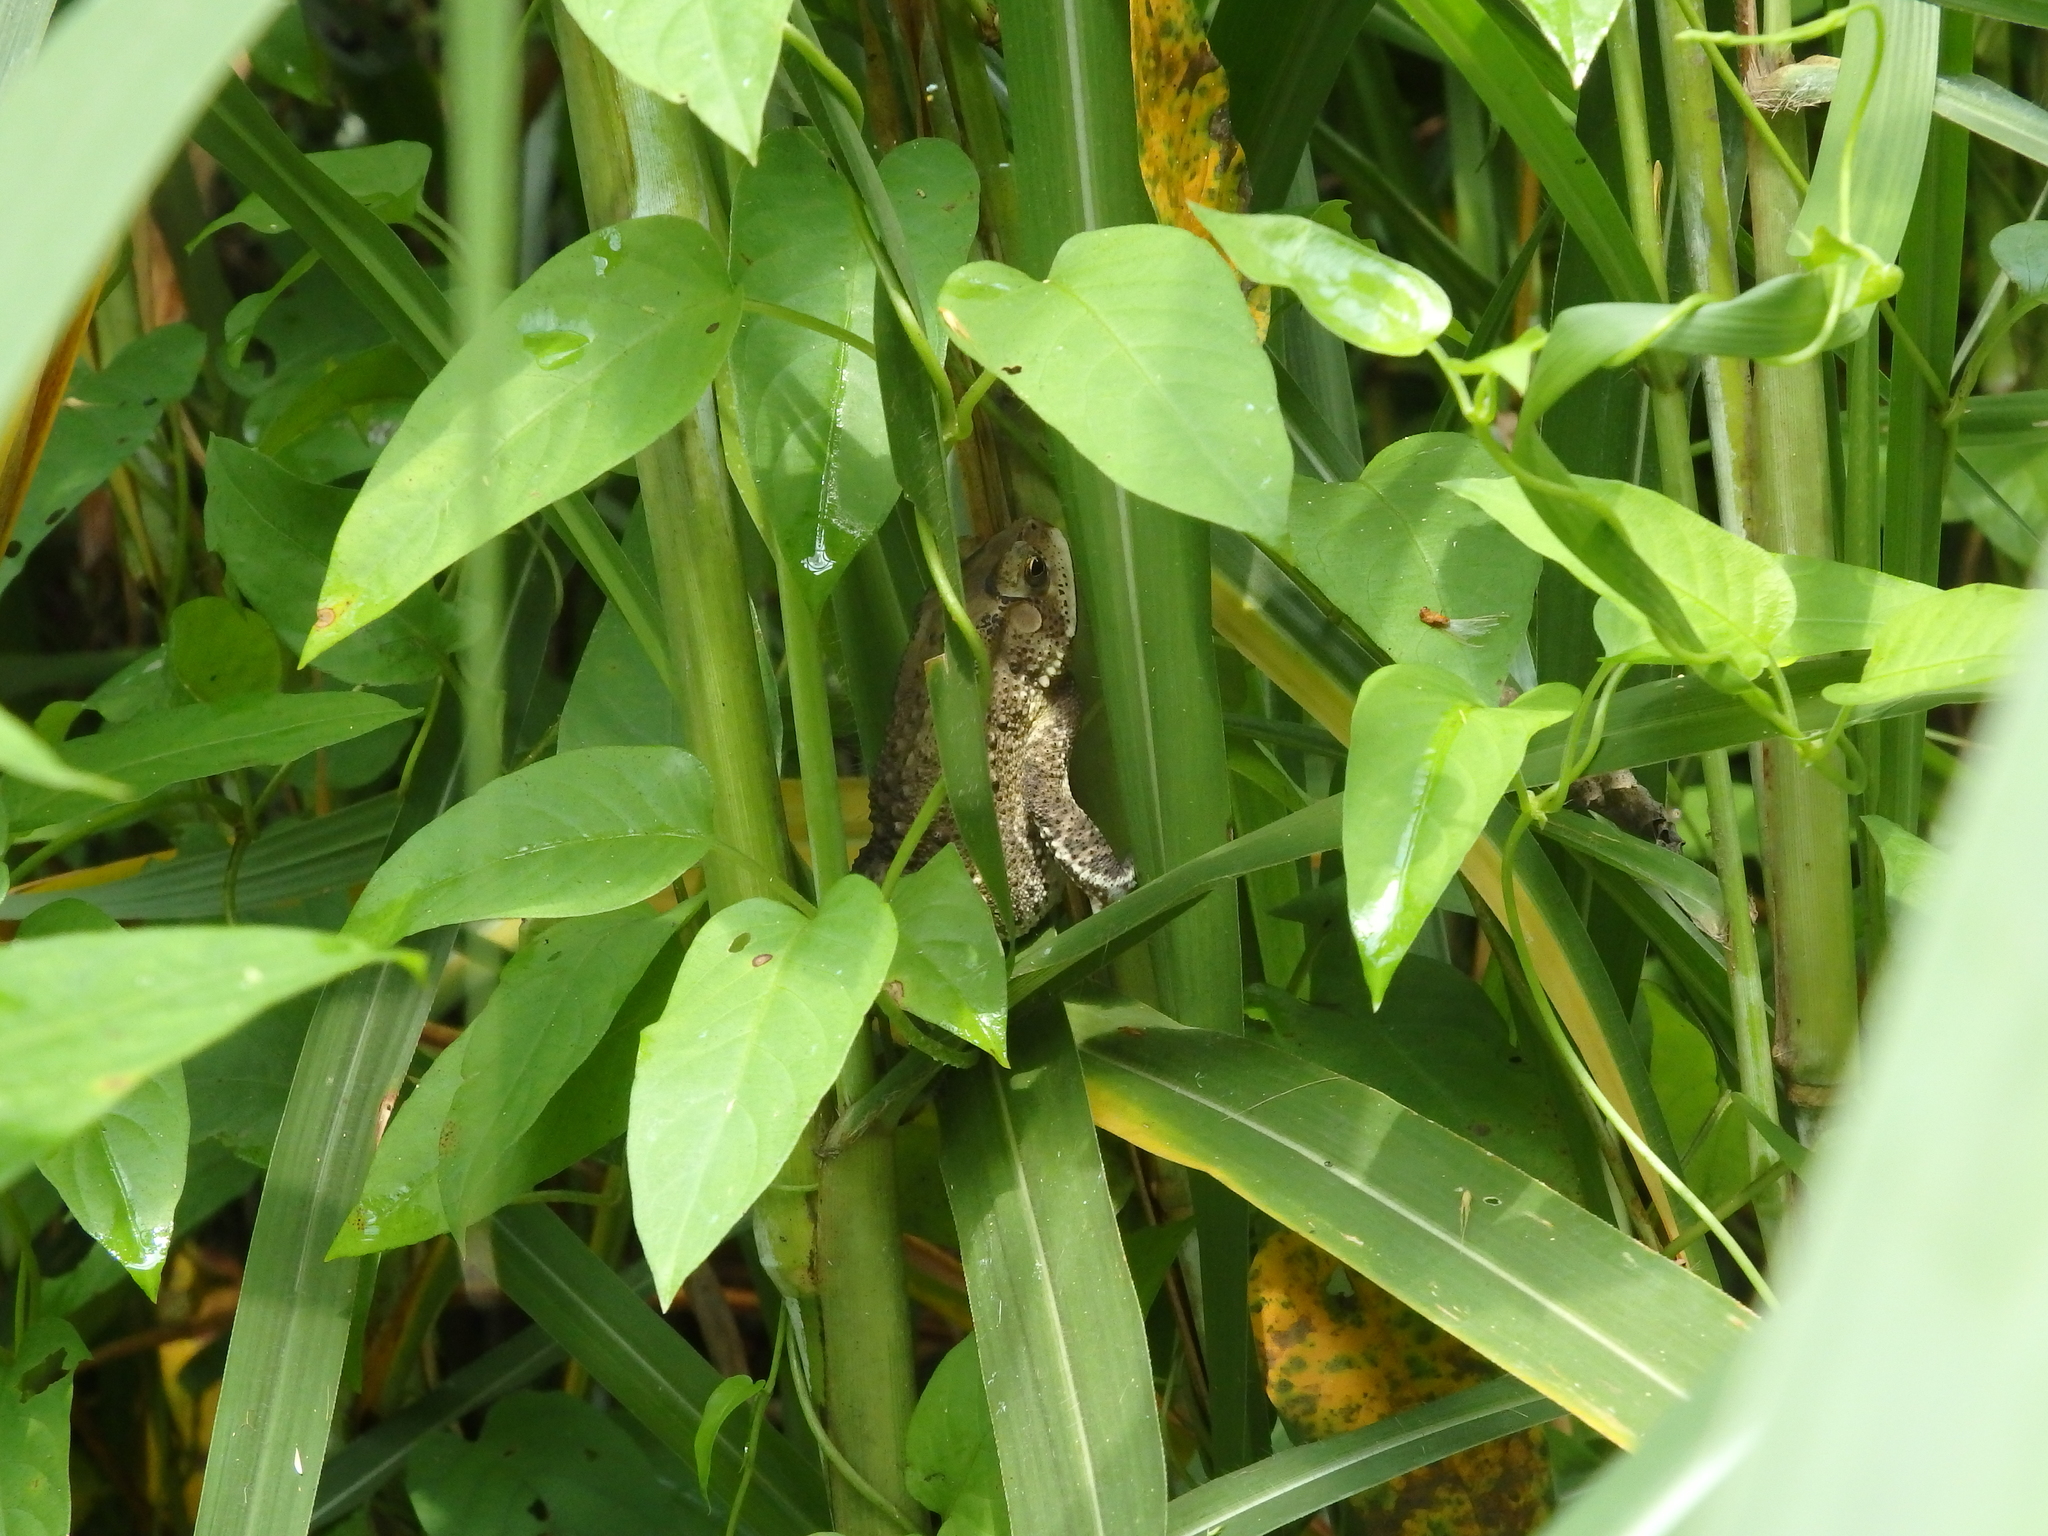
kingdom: Animalia
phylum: Chordata
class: Amphibia
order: Anura
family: Bufonidae
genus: Duttaphrynus
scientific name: Duttaphrynus melanostictus
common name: Common sunda toad
